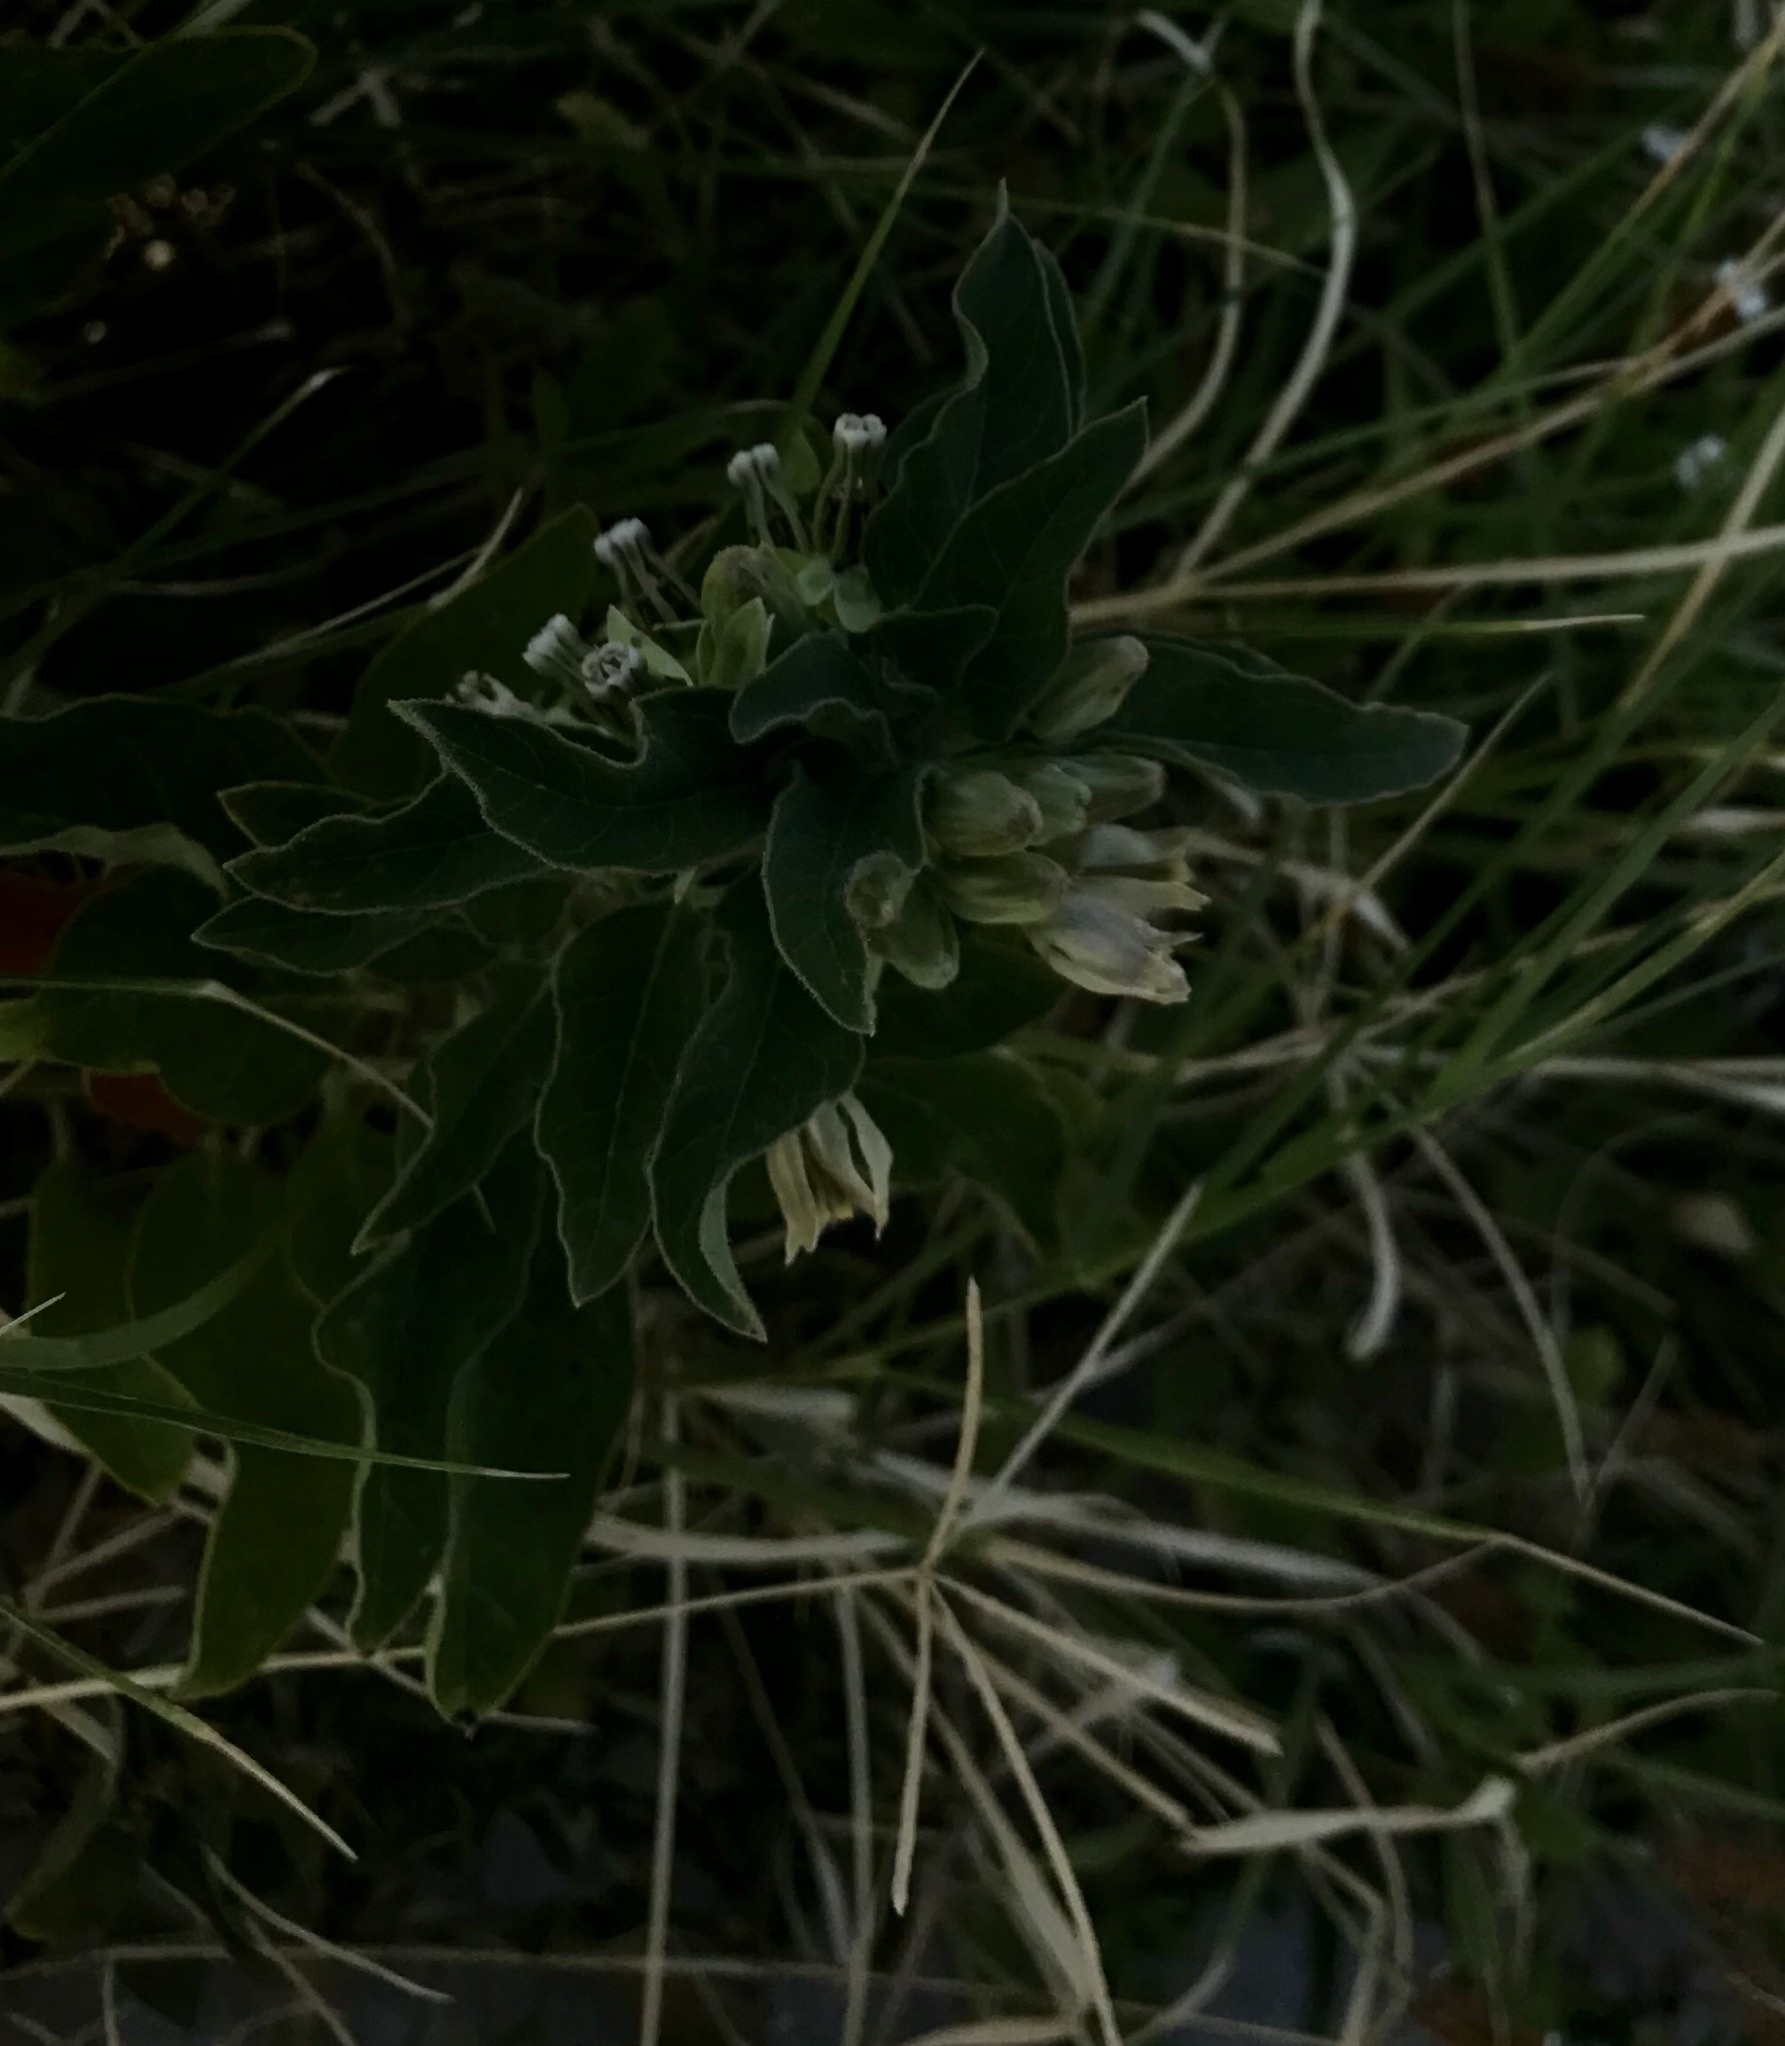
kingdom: Plantae
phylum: Tracheophyta
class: Magnoliopsida
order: Gentianales
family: Apocynaceae
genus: Asclepias
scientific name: Asclepias oenotheroides
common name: Zizotes milkweed
